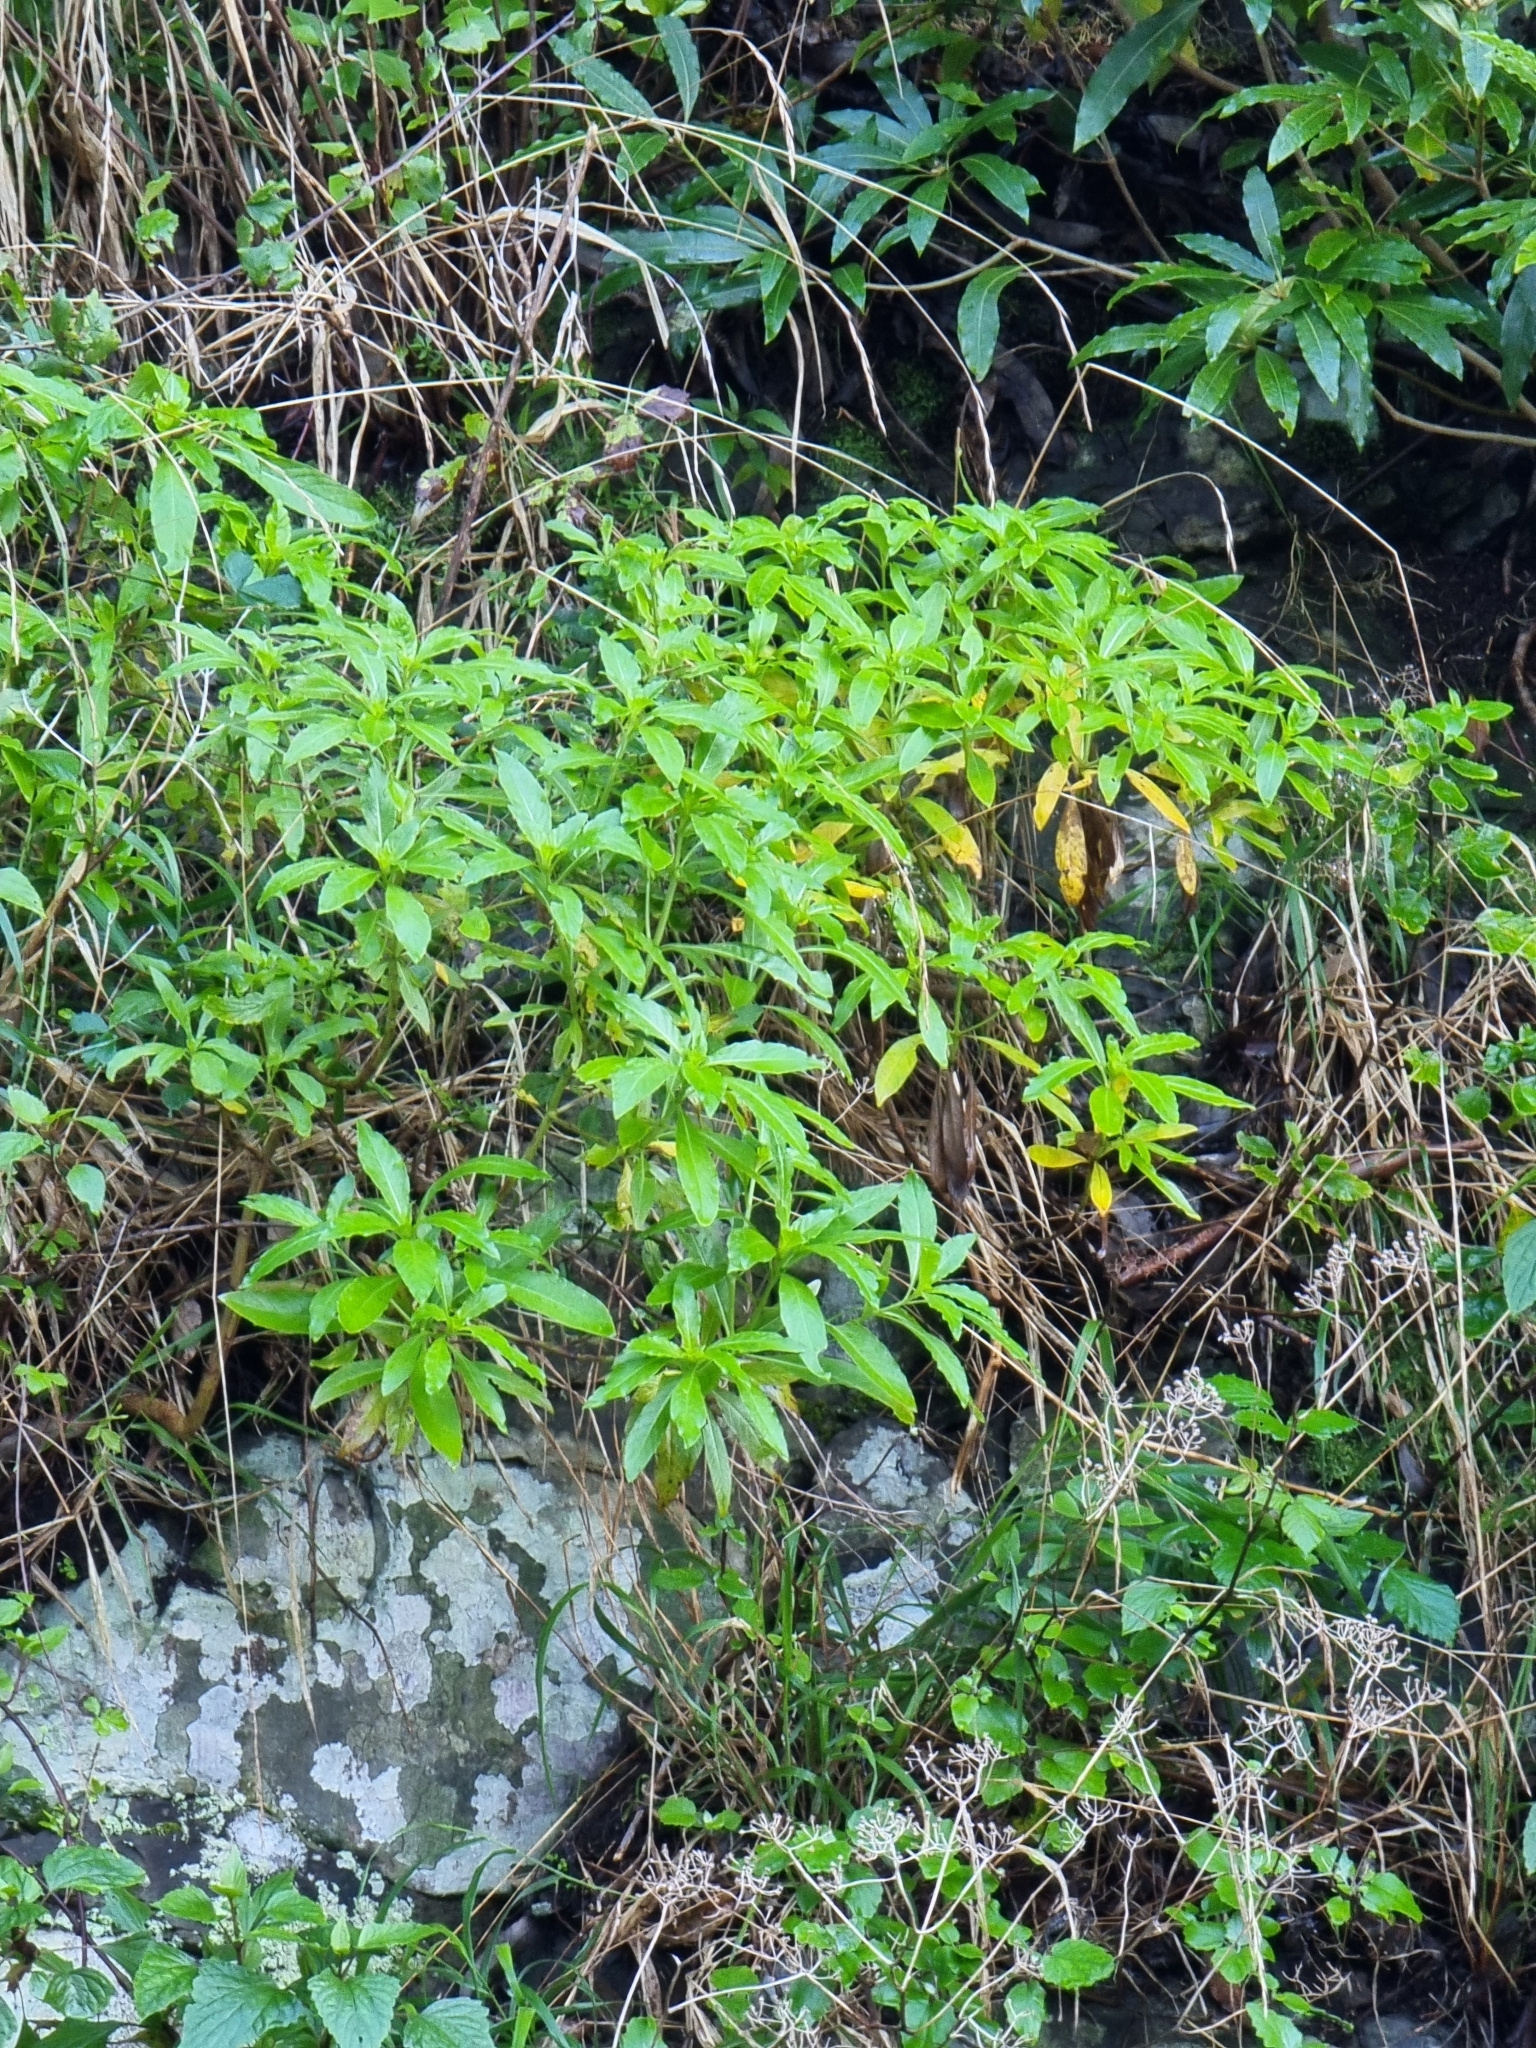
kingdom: Plantae
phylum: Tracheophyta
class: Magnoliopsida
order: Gentianales
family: Rubiaceae
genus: Phyllis
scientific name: Phyllis nobla
